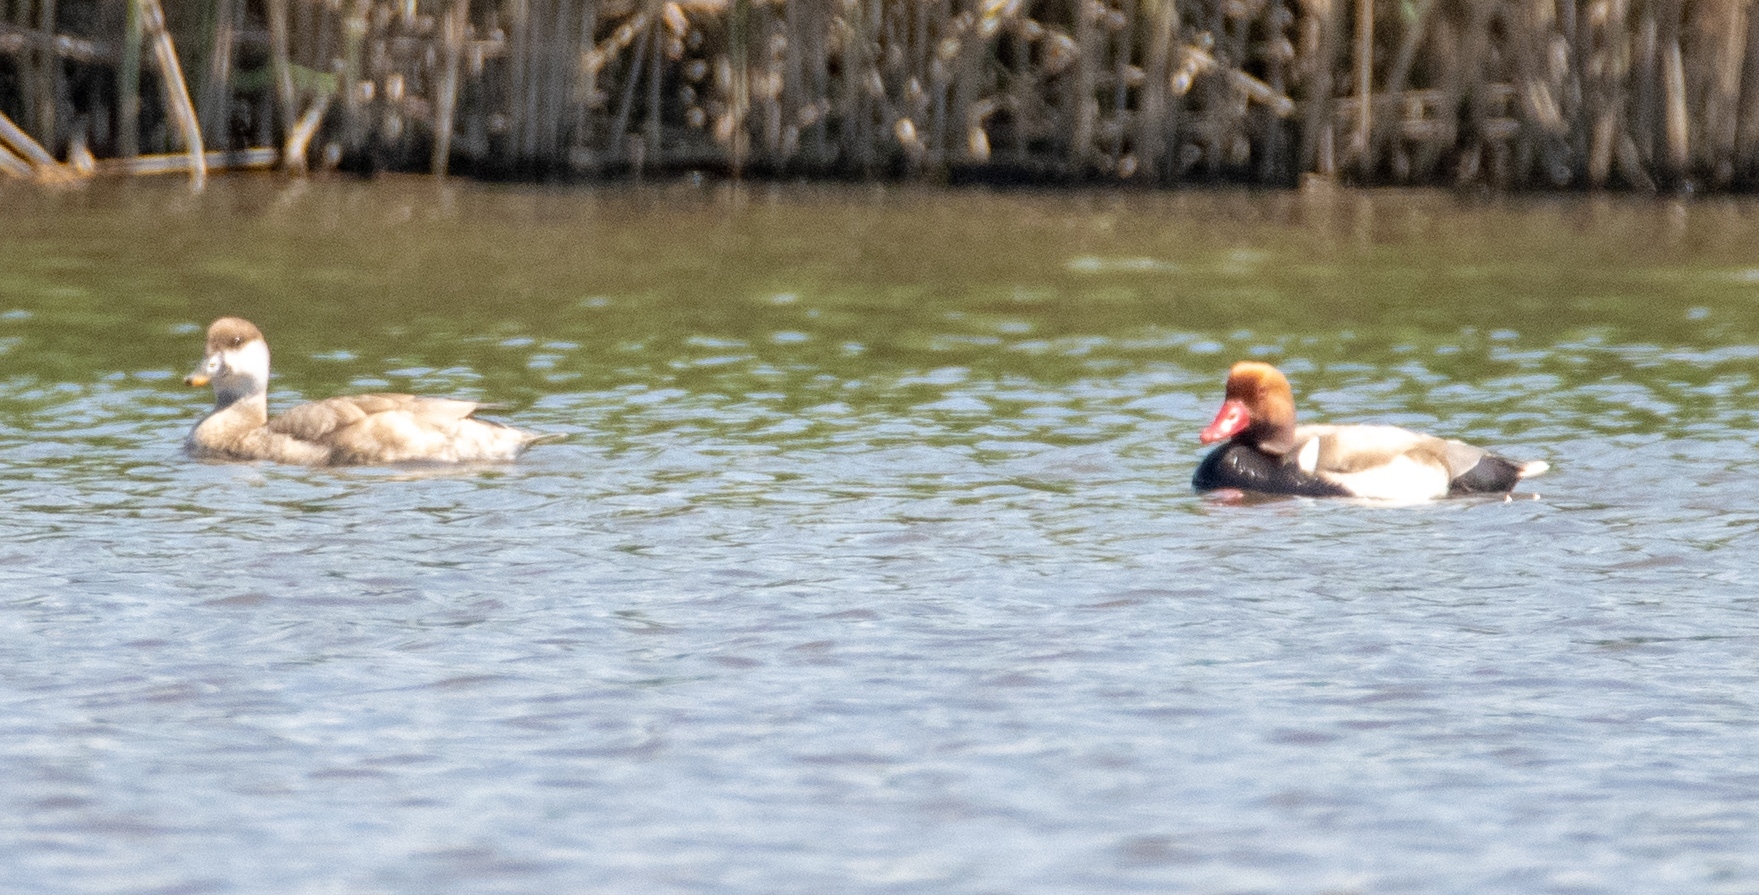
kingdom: Animalia
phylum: Chordata
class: Aves
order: Anseriformes
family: Anatidae
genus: Netta
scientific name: Netta rufina
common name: Red-crested pochard
